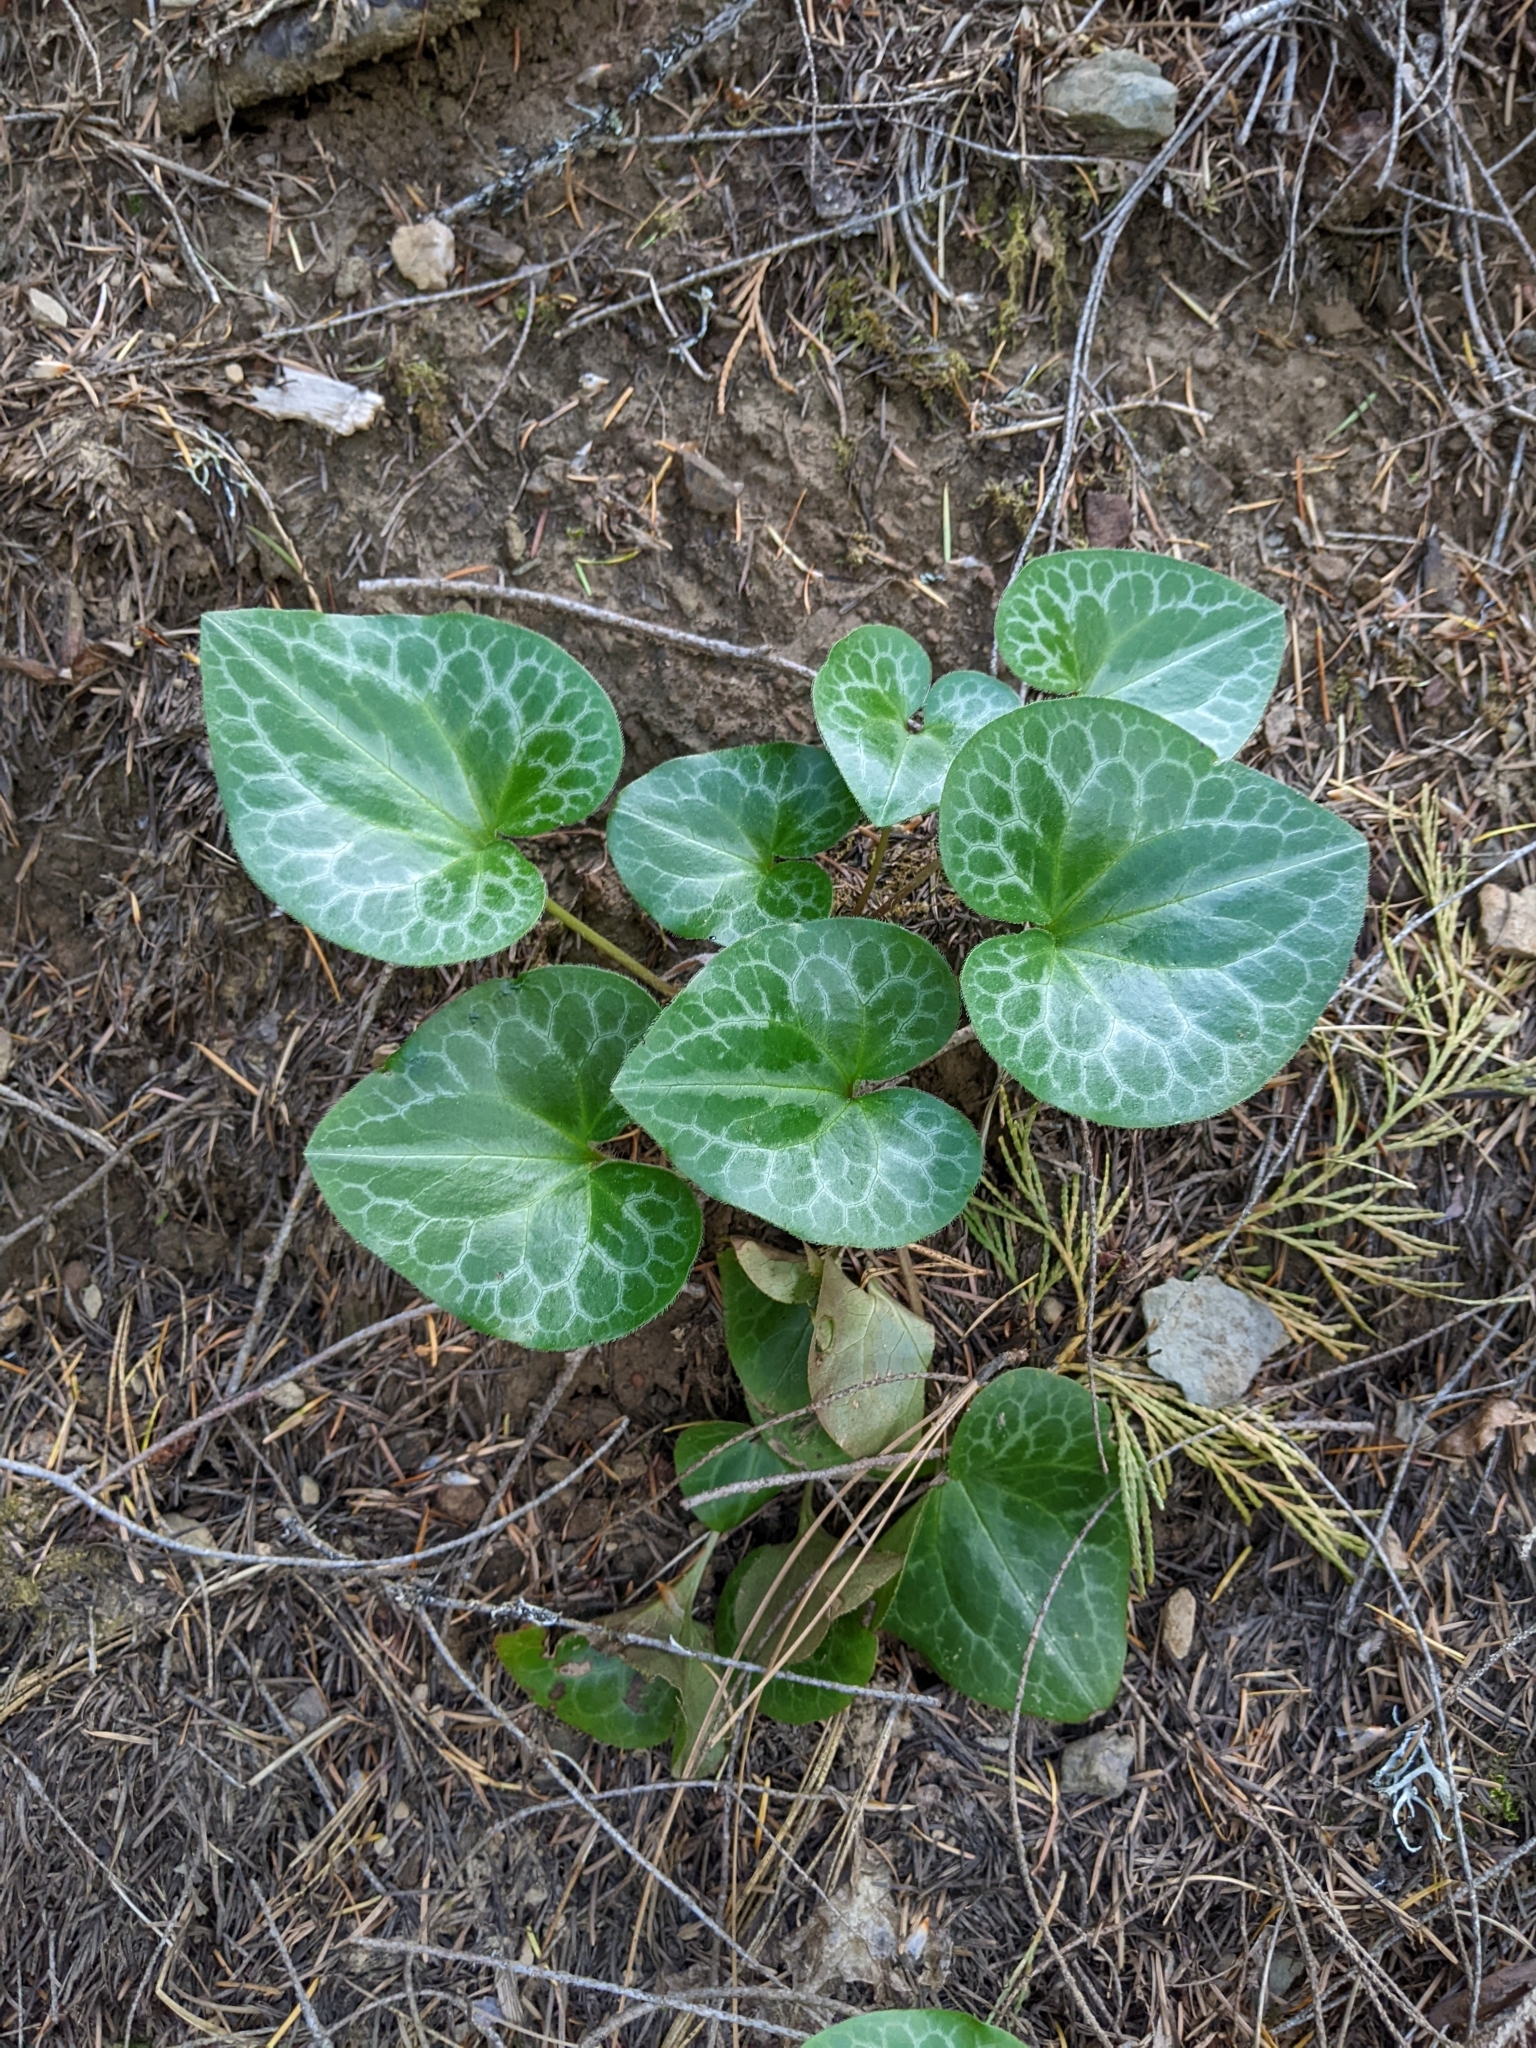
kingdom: Plantae
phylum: Tracheophyta
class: Magnoliopsida
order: Piperales
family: Aristolochiaceae
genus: Asarum
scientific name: Asarum hartwegii
